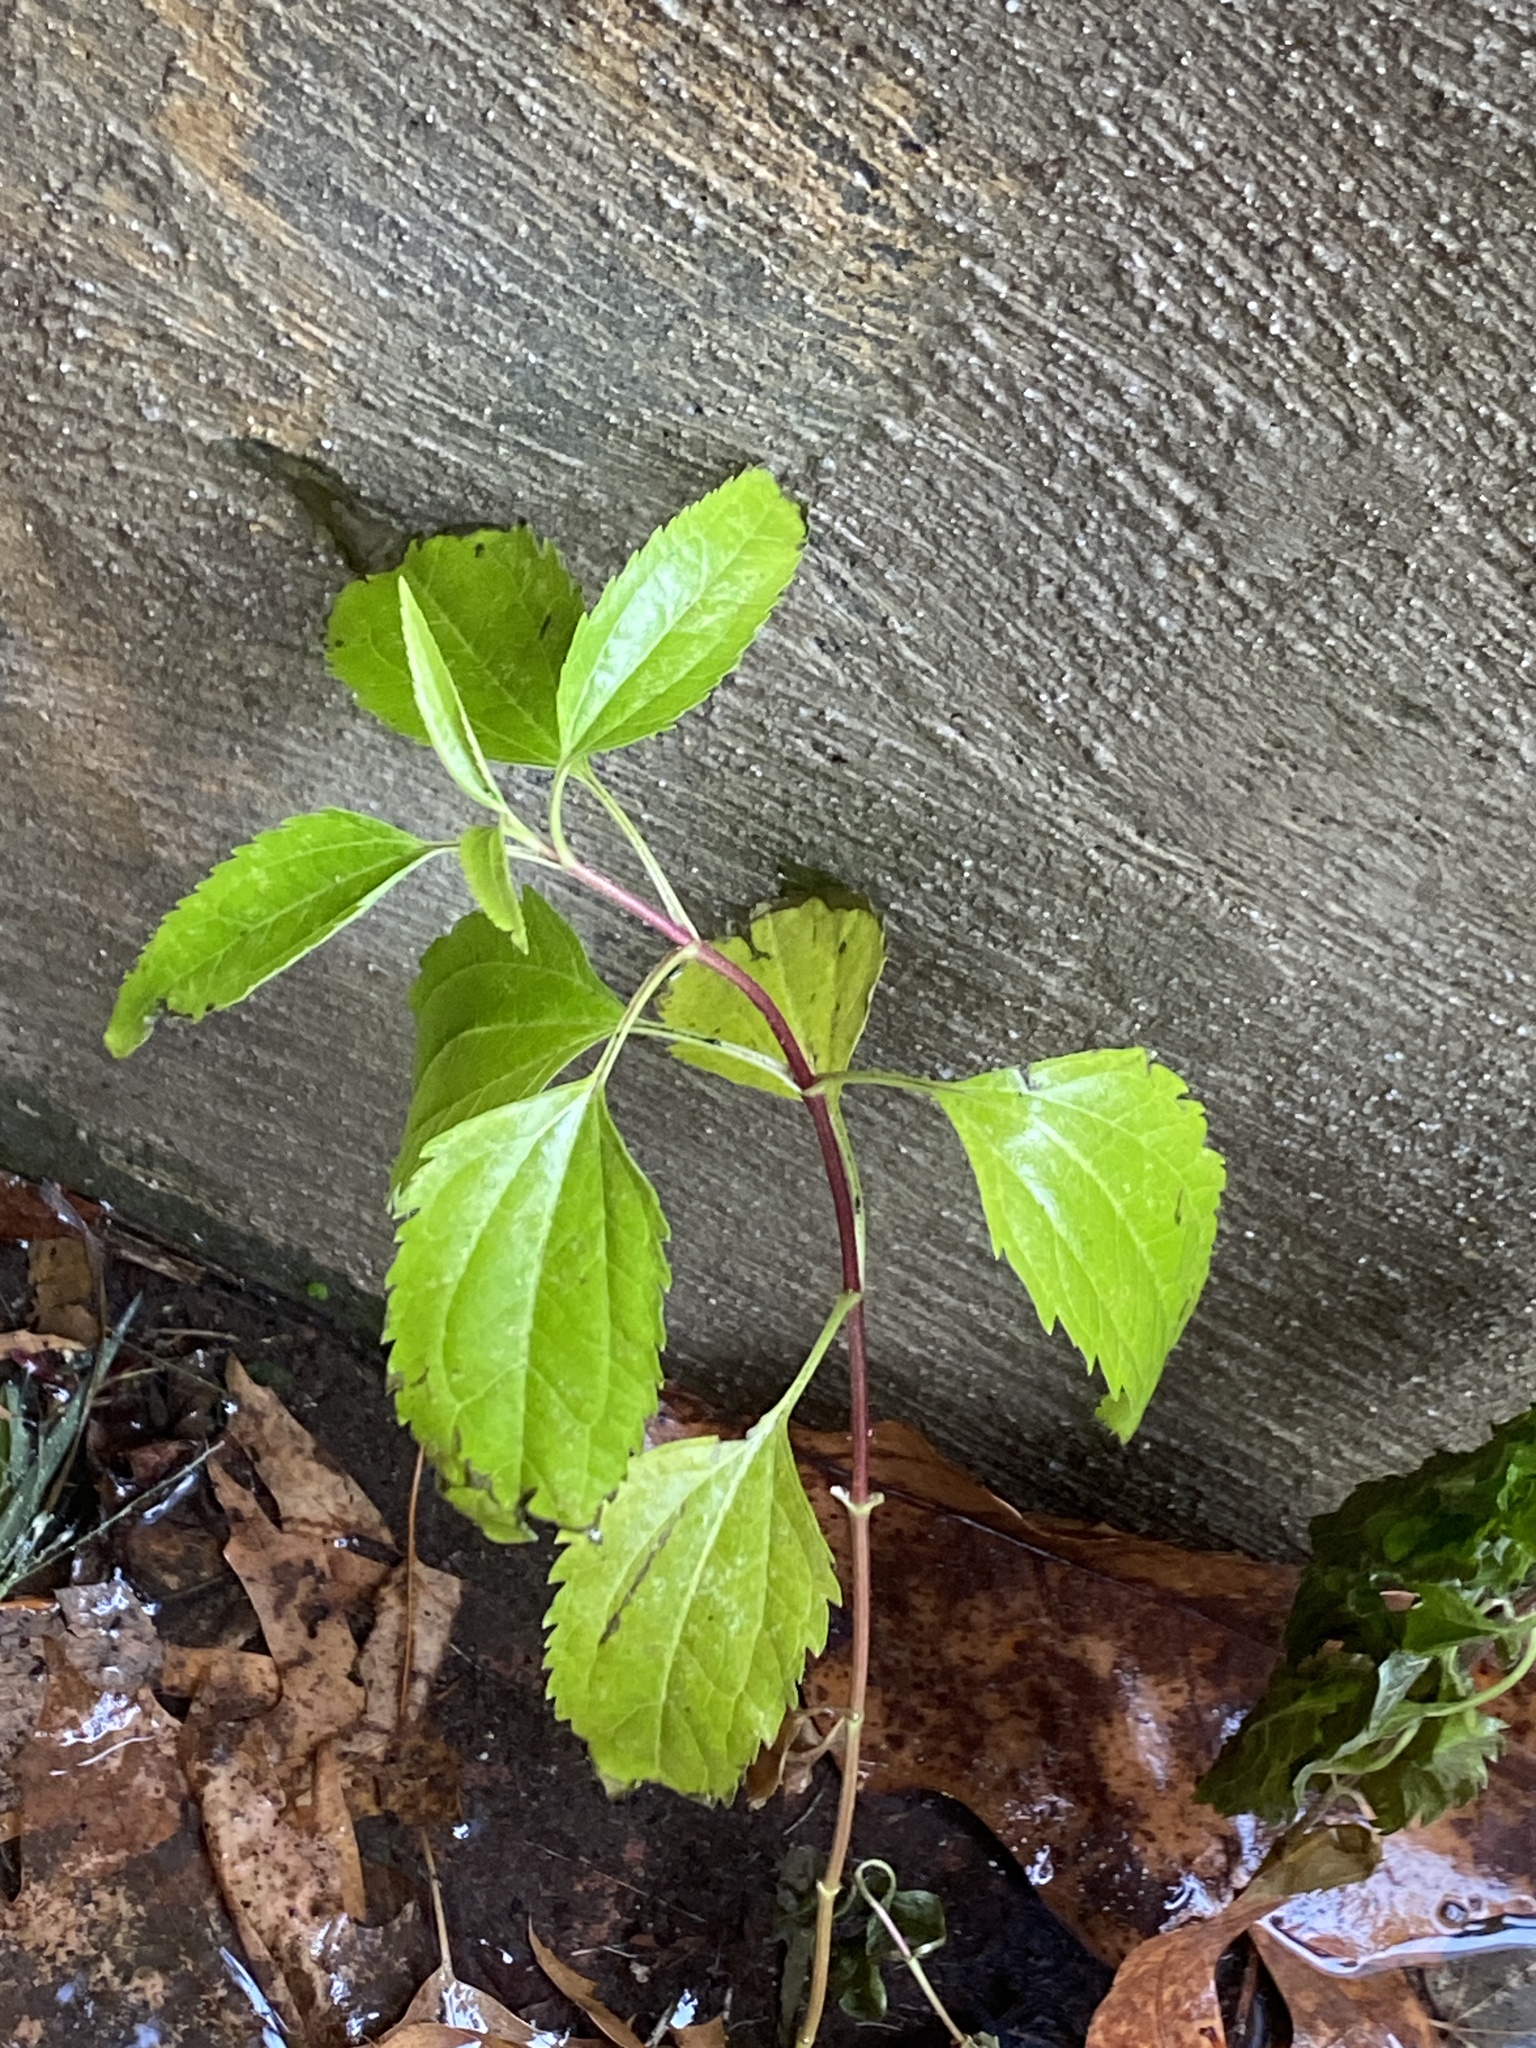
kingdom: Plantae
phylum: Tracheophyta
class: Magnoliopsida
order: Asterales
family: Asteraceae
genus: Eupatorium
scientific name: Eupatorium serotinum
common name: Late boneset
